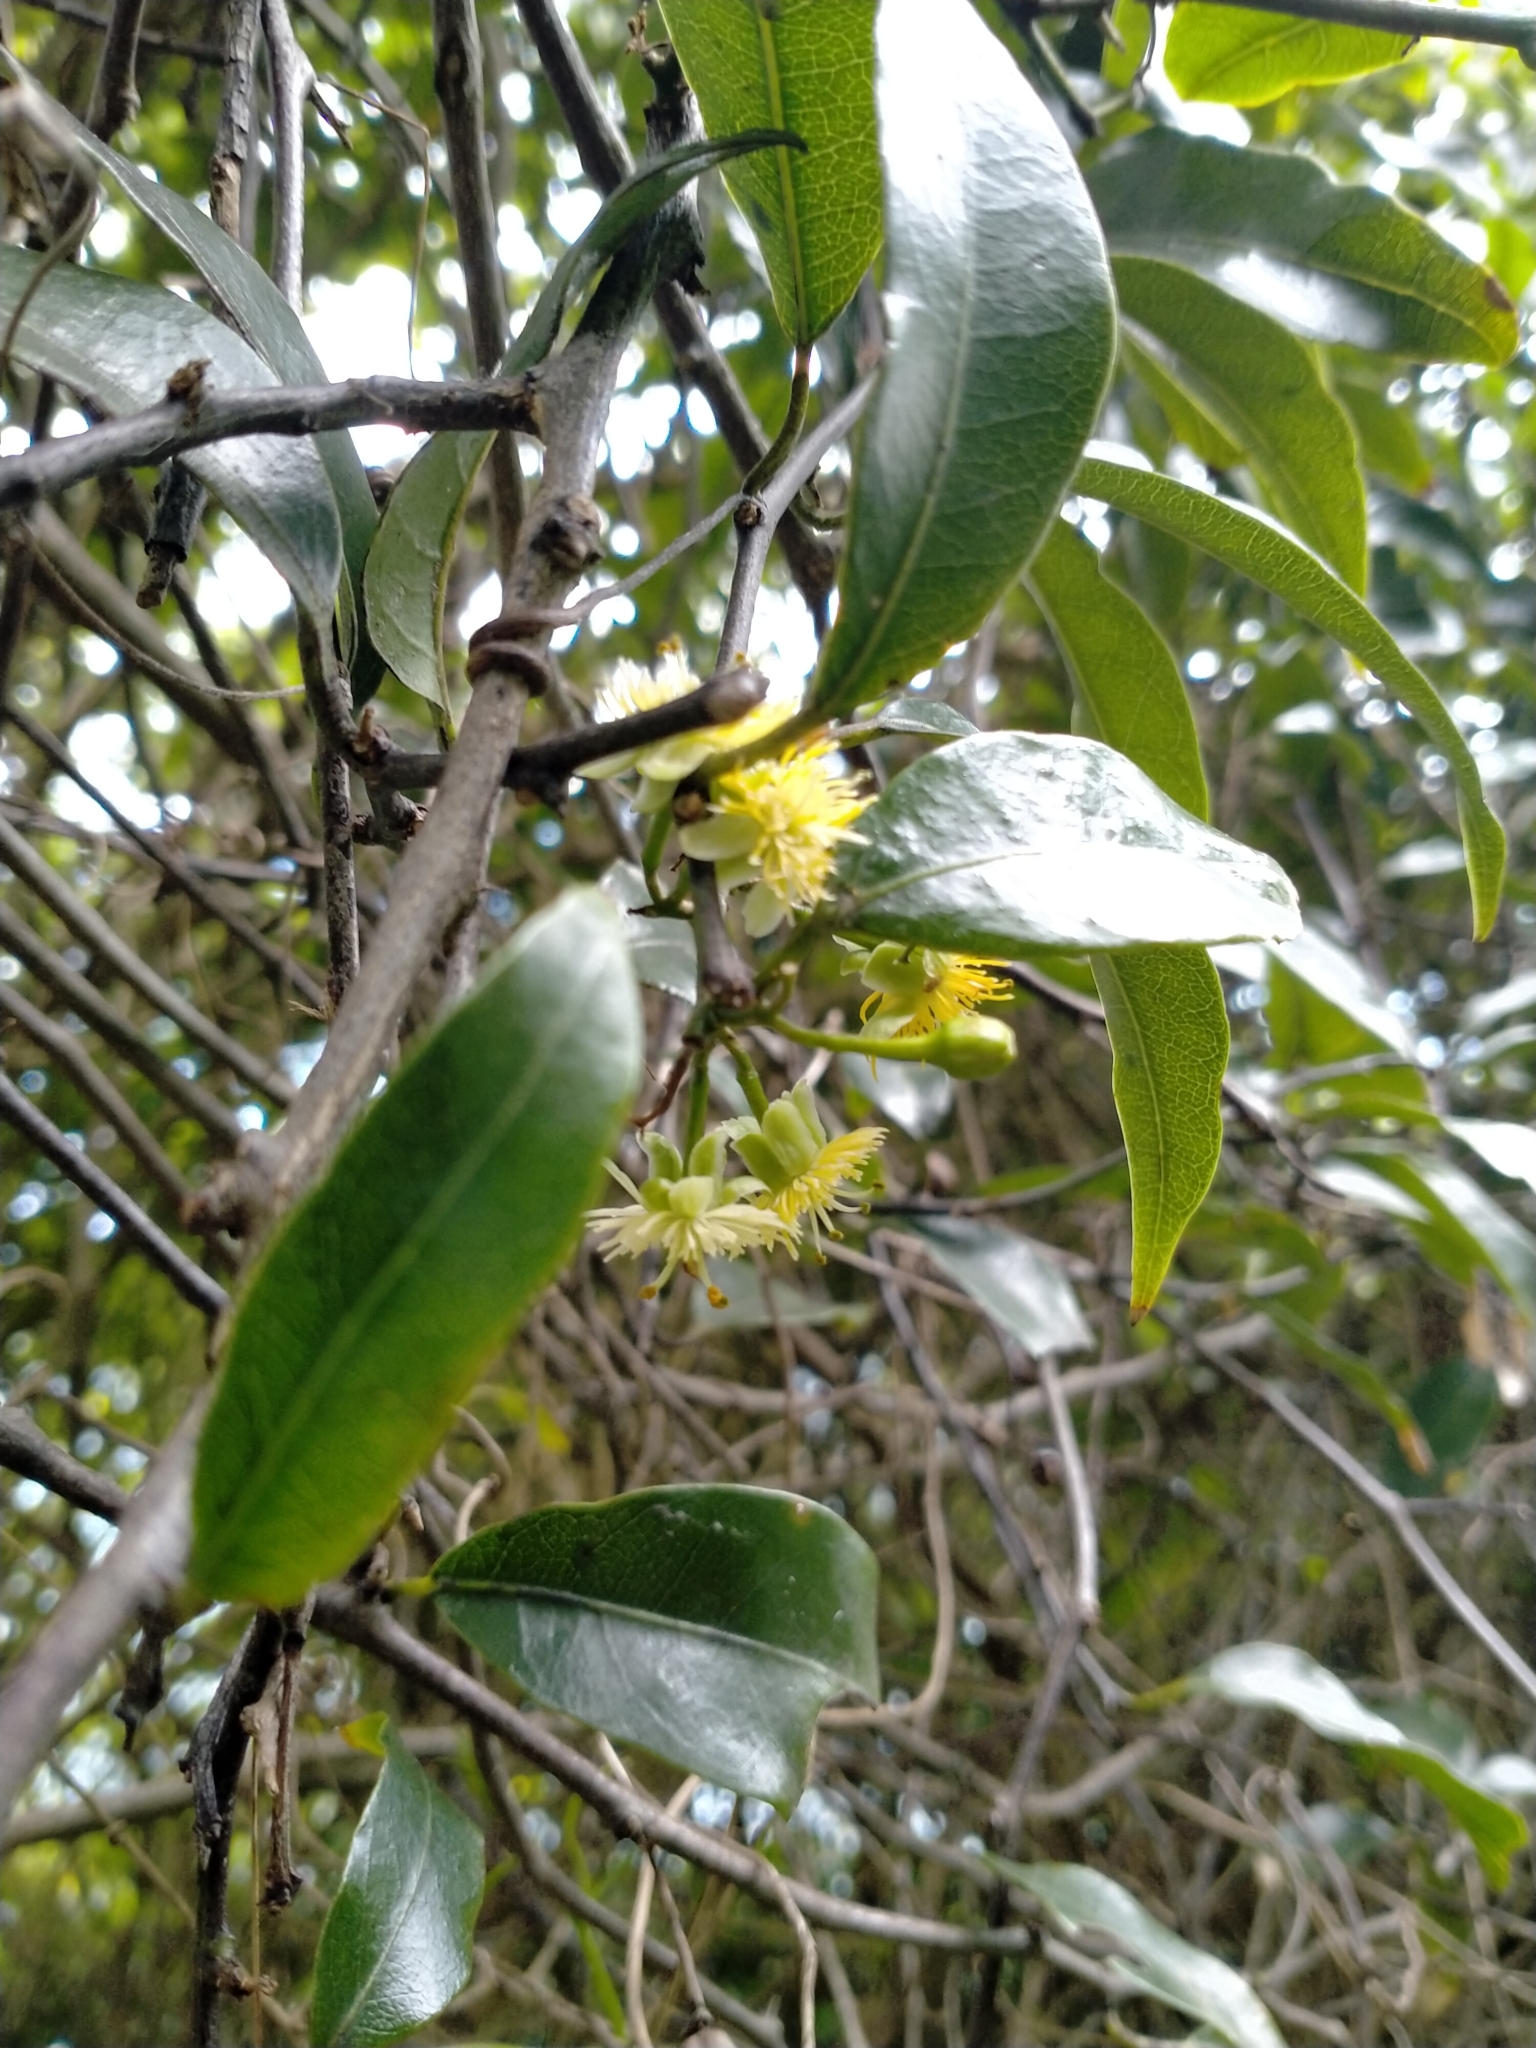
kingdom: Plantae
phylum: Tracheophyta
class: Magnoliopsida
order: Malpighiales
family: Passifloraceae
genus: Passiflora
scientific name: Passiflora tetrandra
